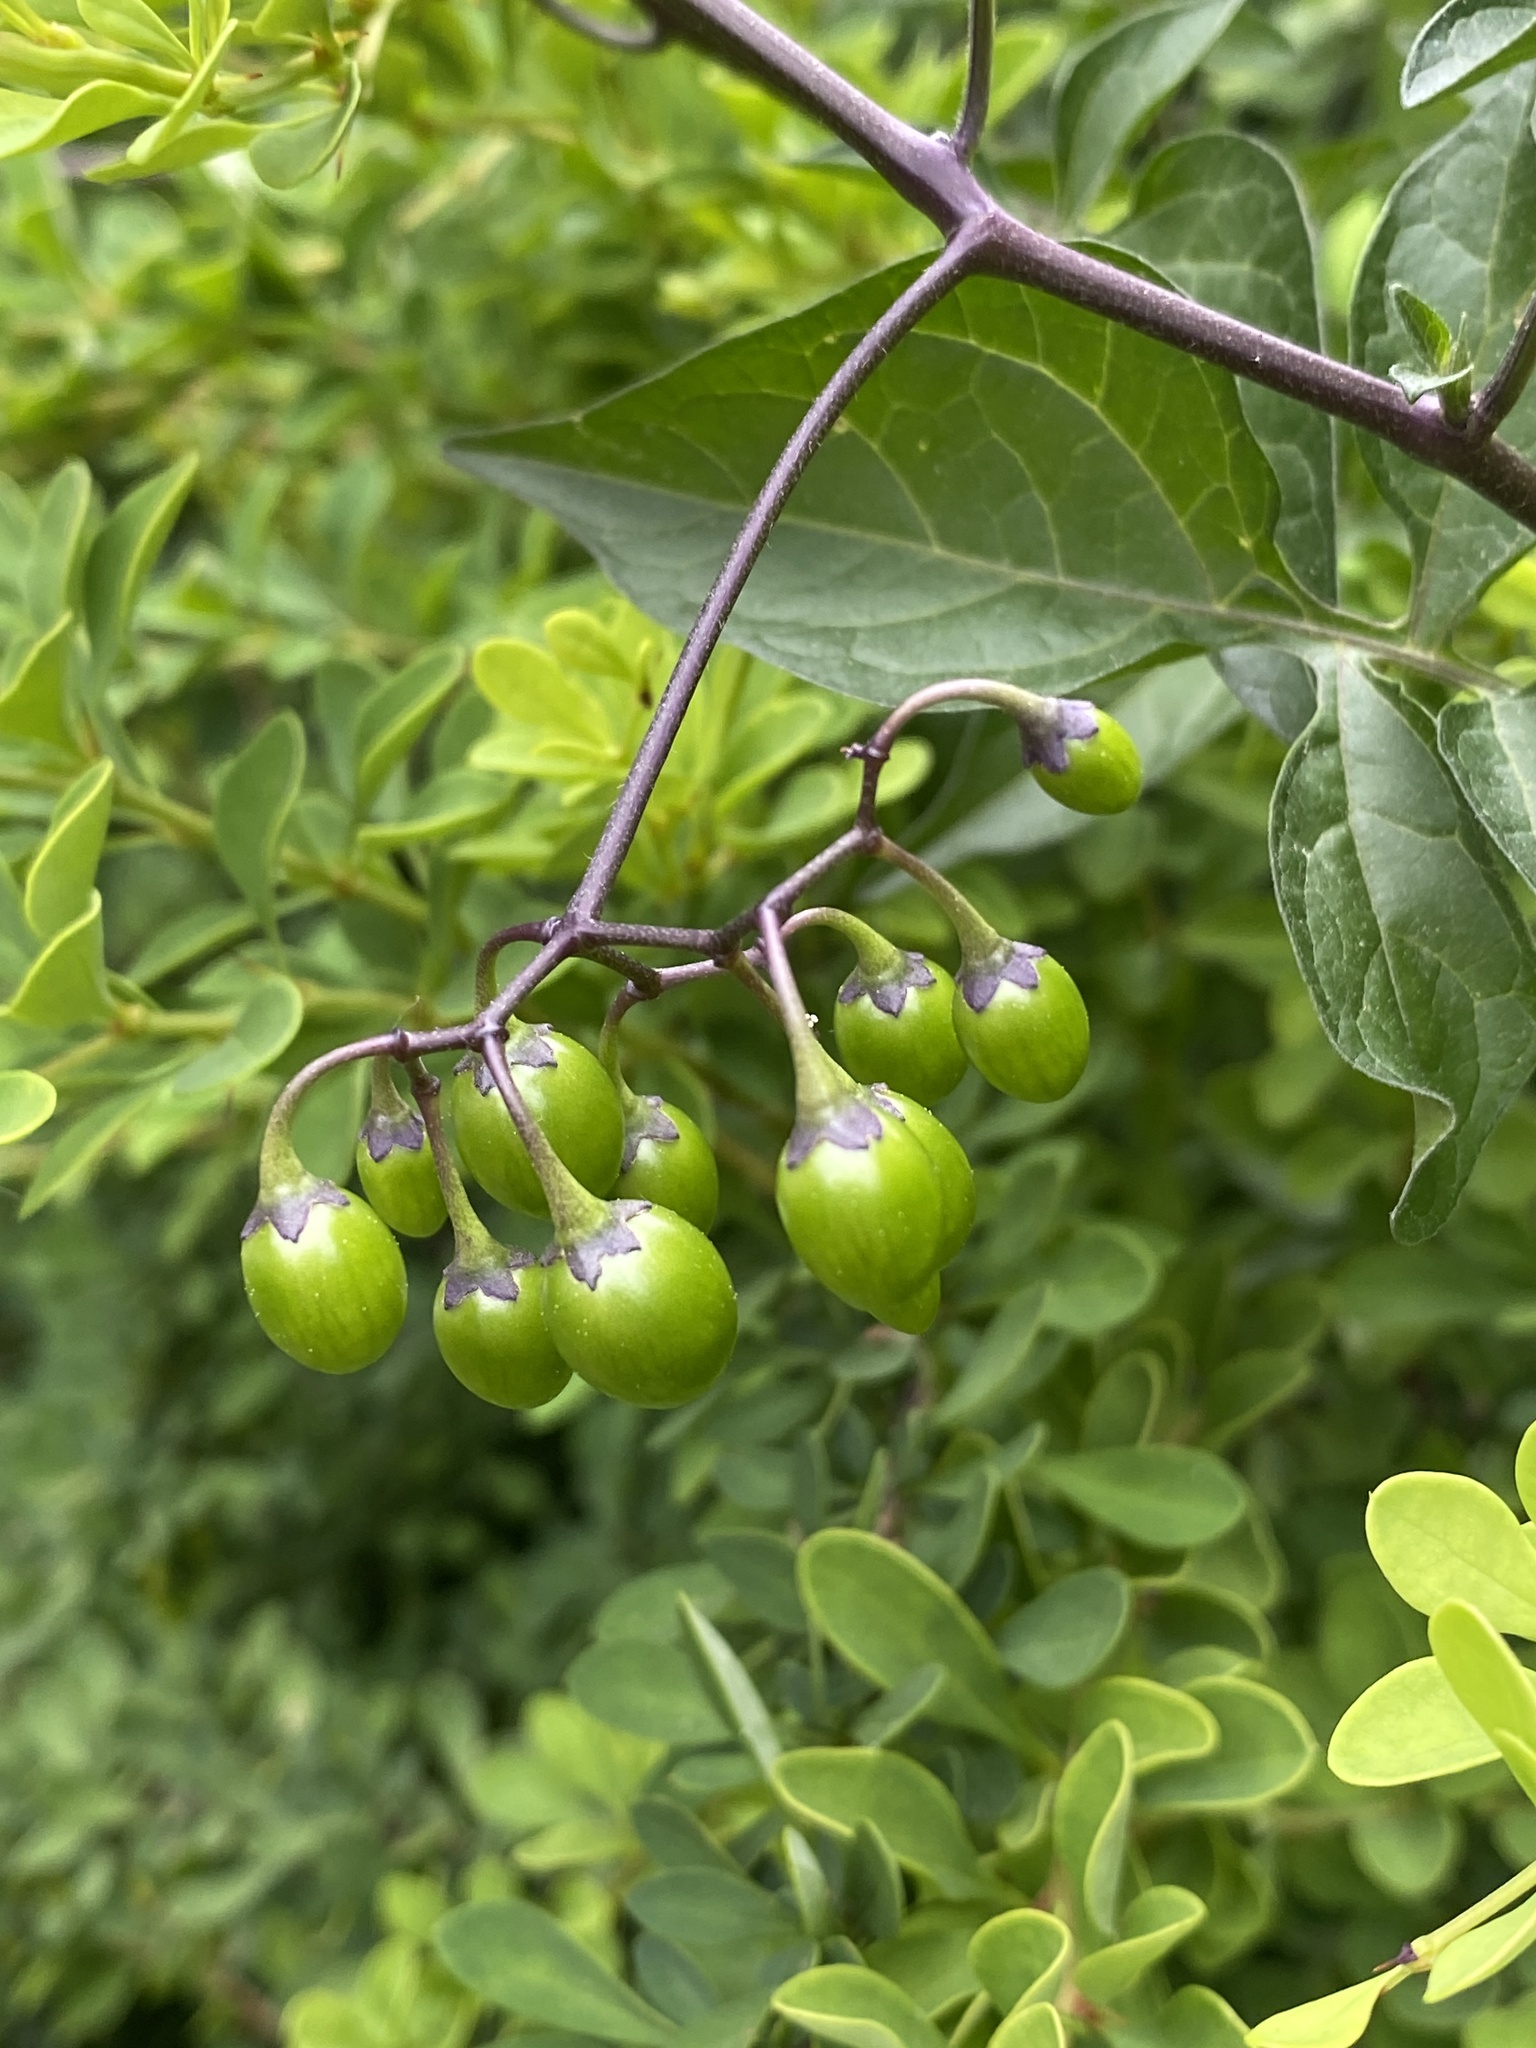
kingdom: Plantae
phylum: Tracheophyta
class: Magnoliopsida
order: Solanales
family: Solanaceae
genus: Solanum
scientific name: Solanum dulcamara
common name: Climbing nightshade
